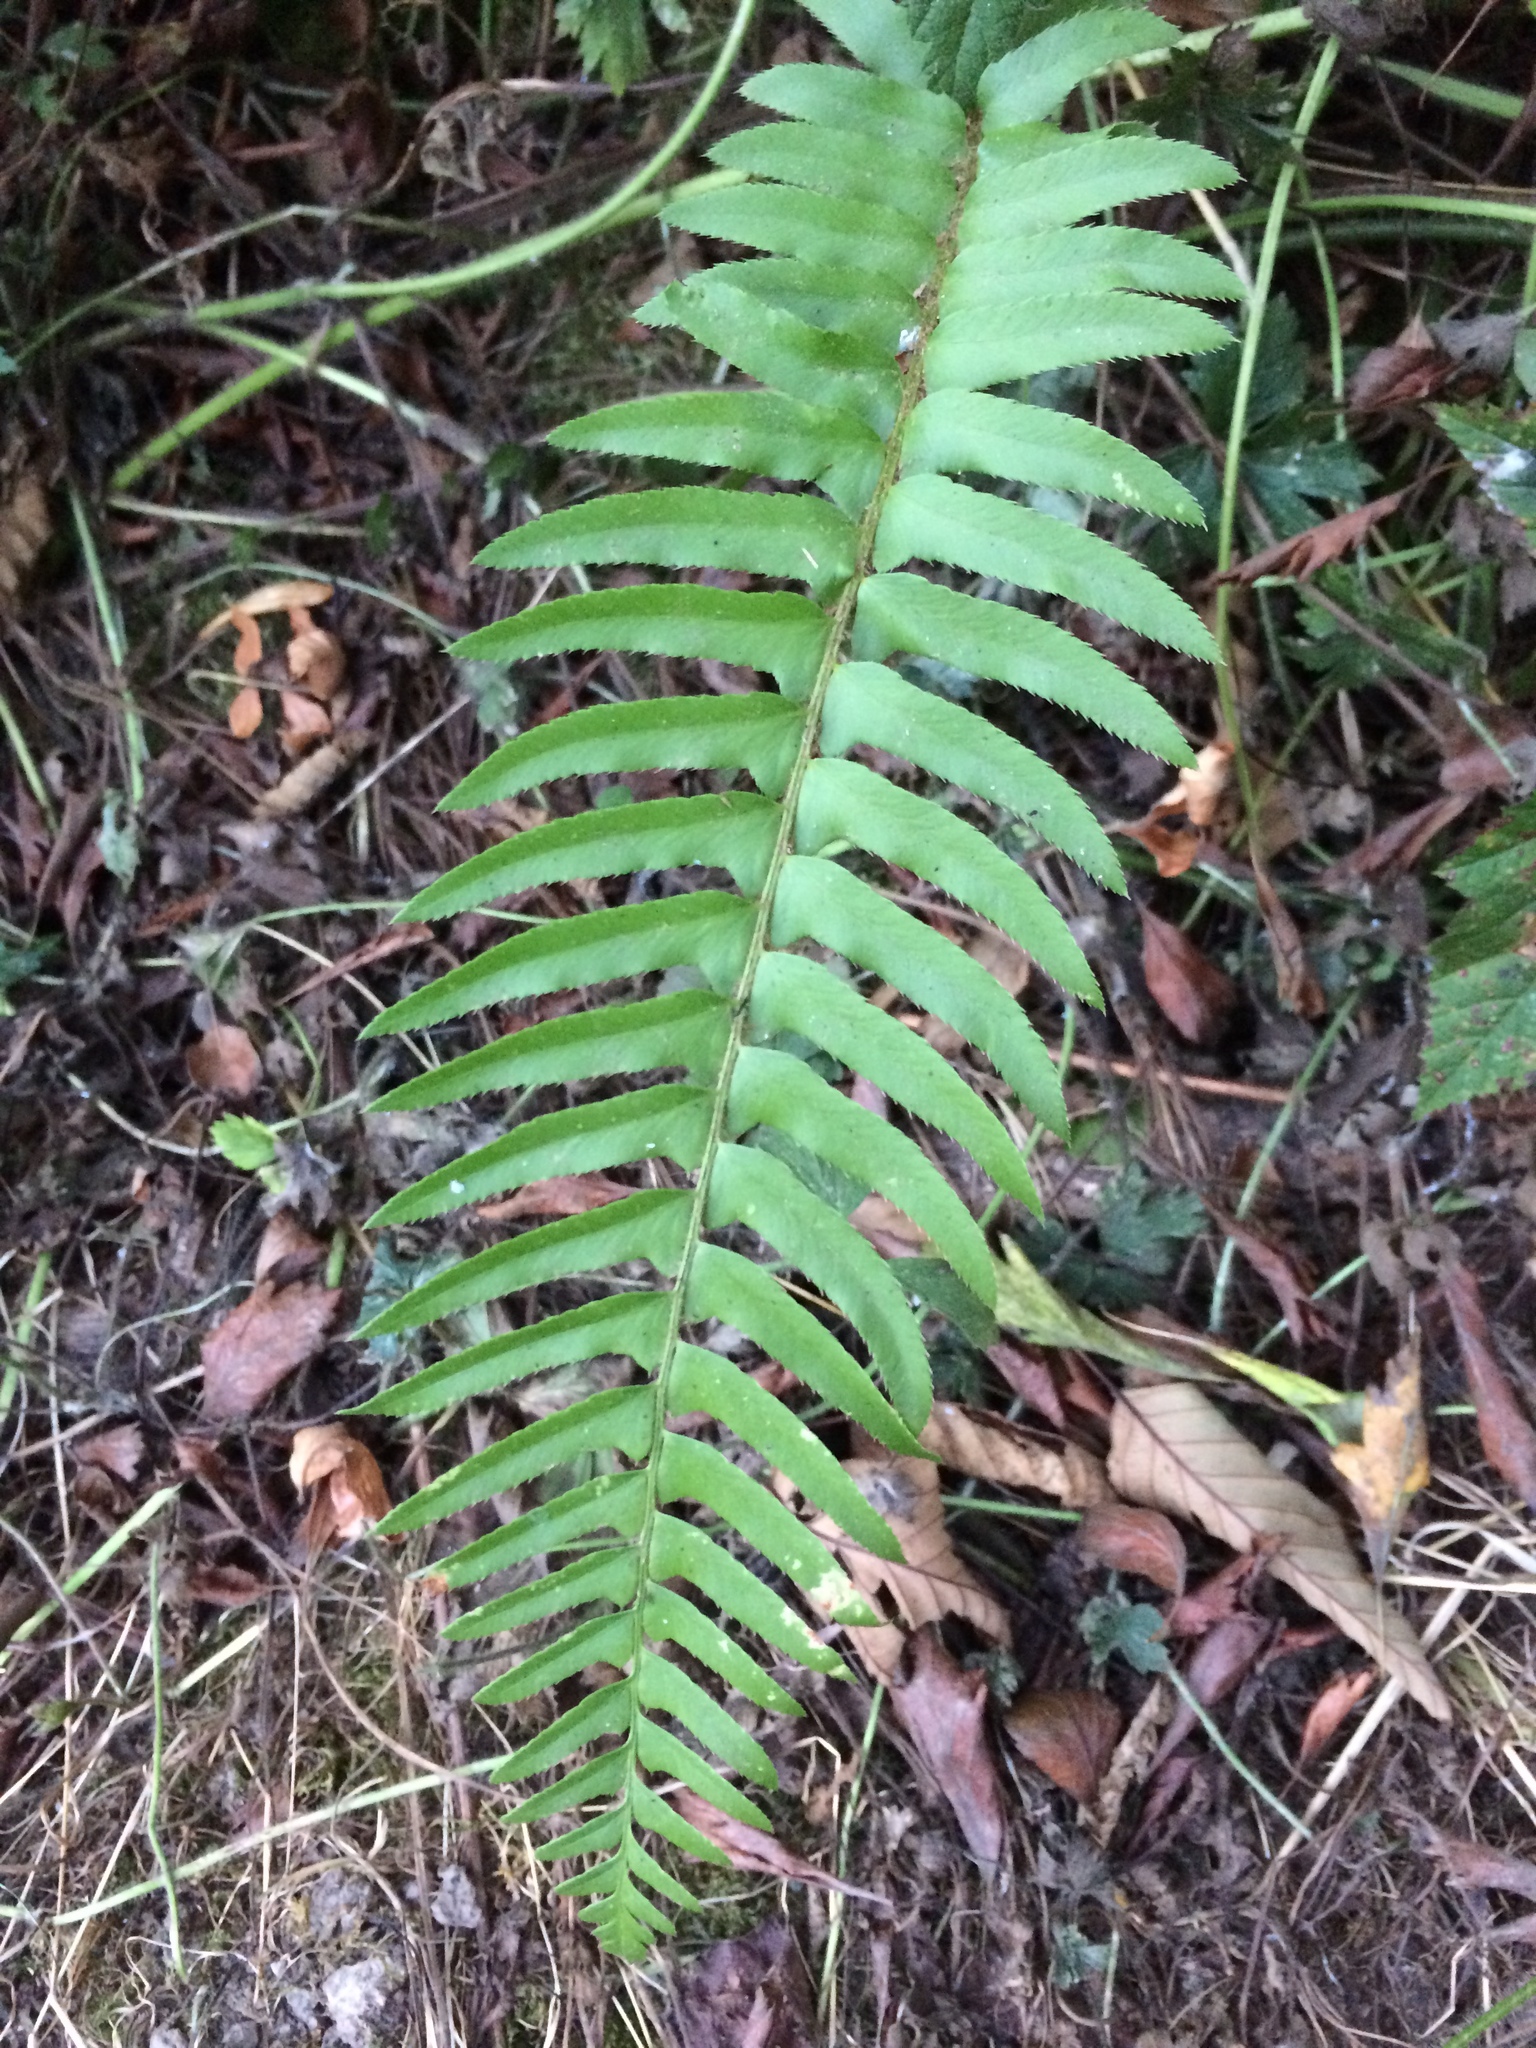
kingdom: Plantae
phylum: Tracheophyta
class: Polypodiopsida
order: Polypodiales
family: Dryopteridaceae
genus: Polystichum
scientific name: Polystichum munitum
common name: Western sword-fern
